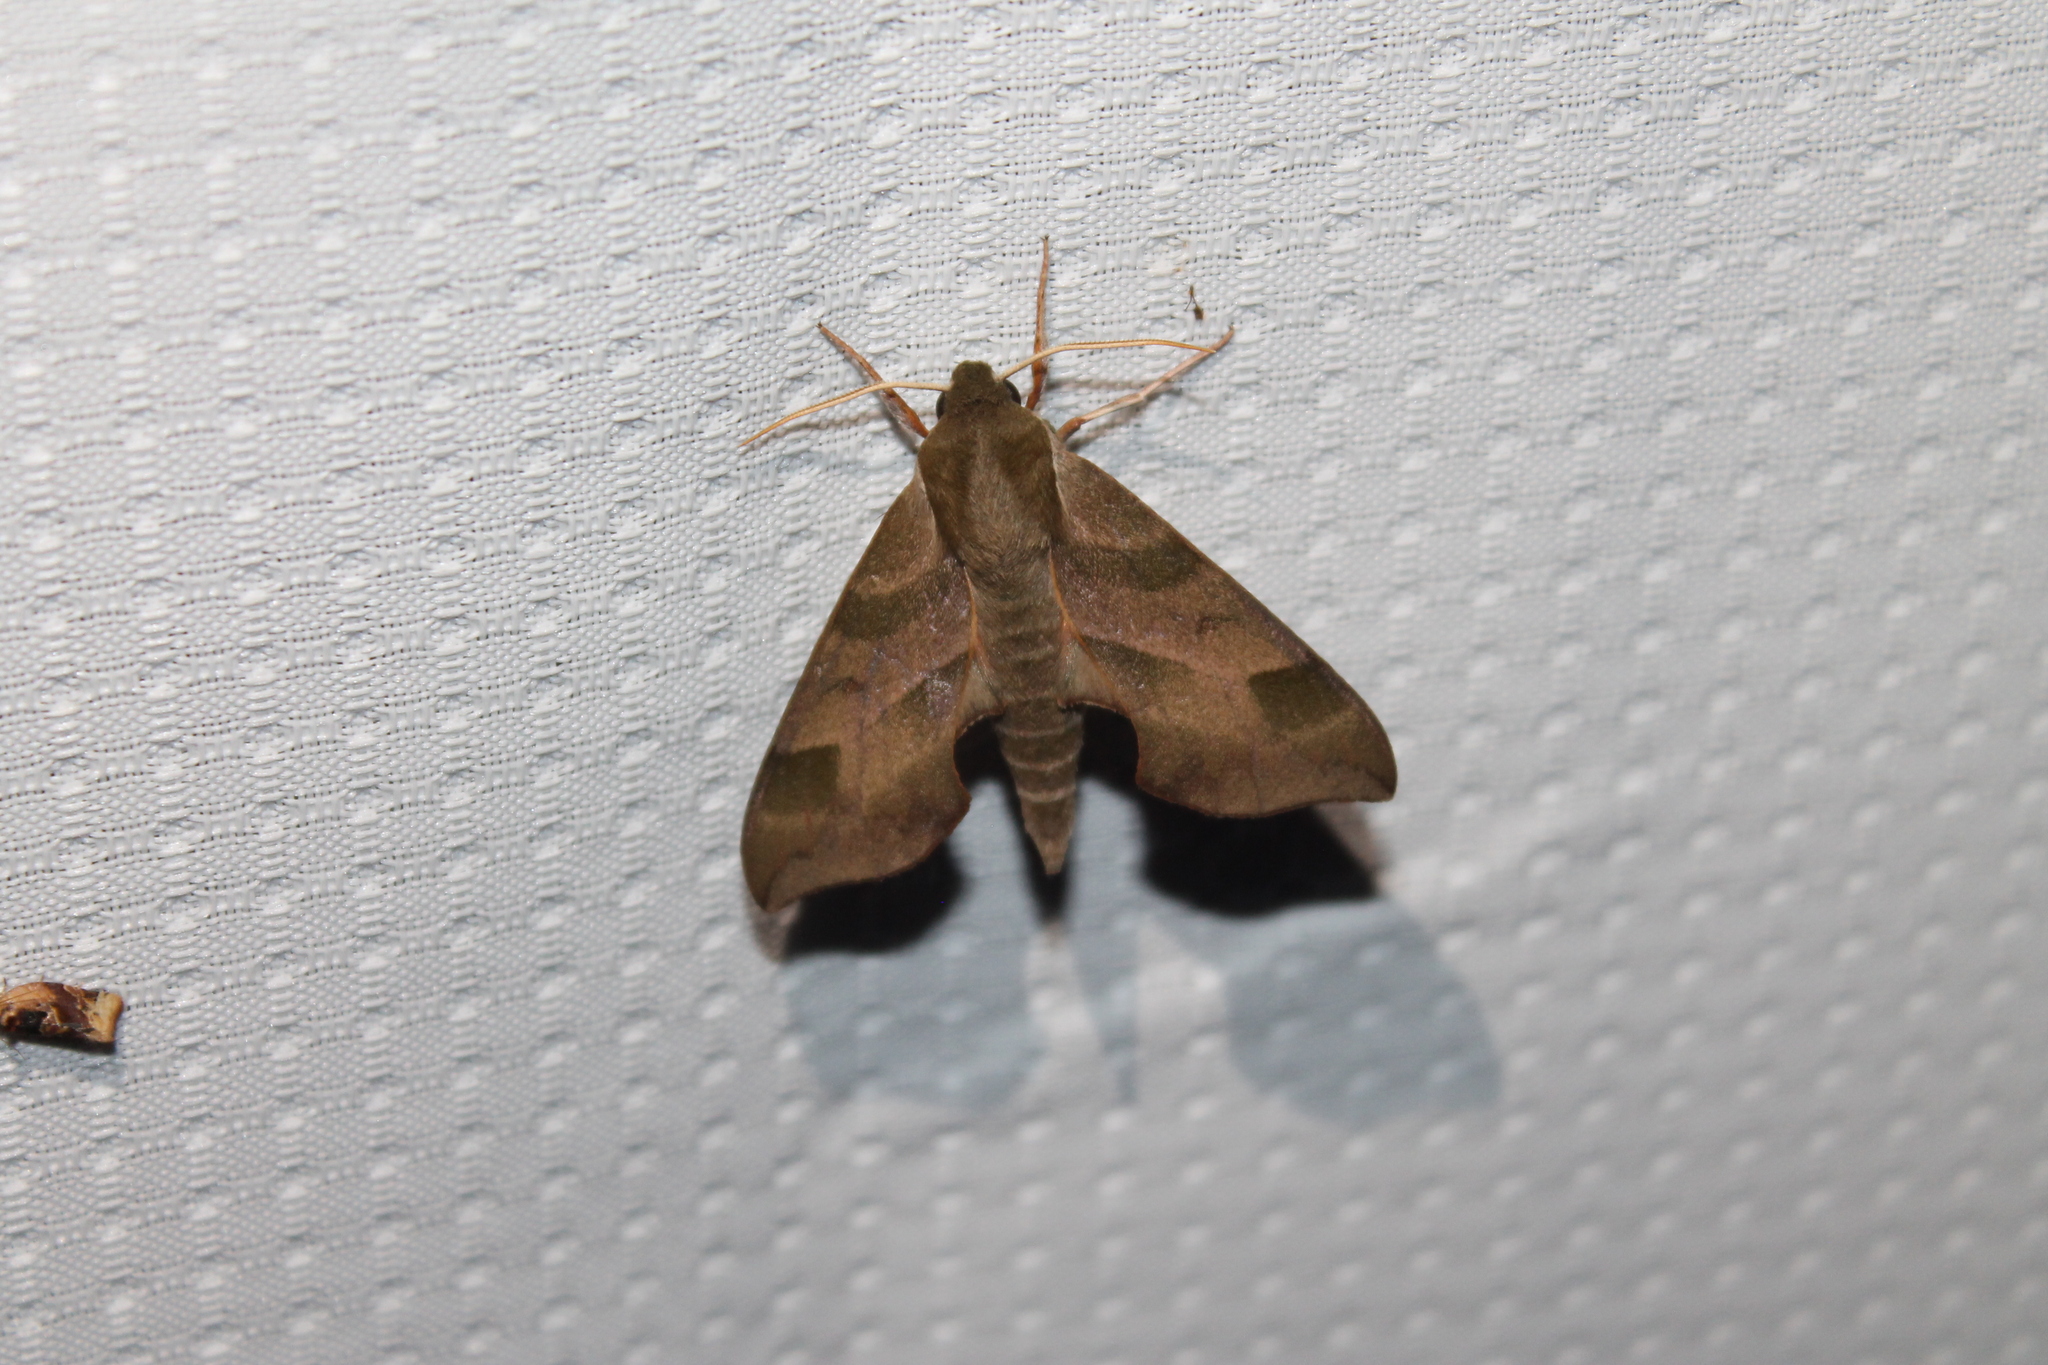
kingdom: Animalia
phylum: Arthropoda
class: Insecta
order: Lepidoptera
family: Sphingidae
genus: Darapsa
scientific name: Darapsa myron
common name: Hog sphinx
